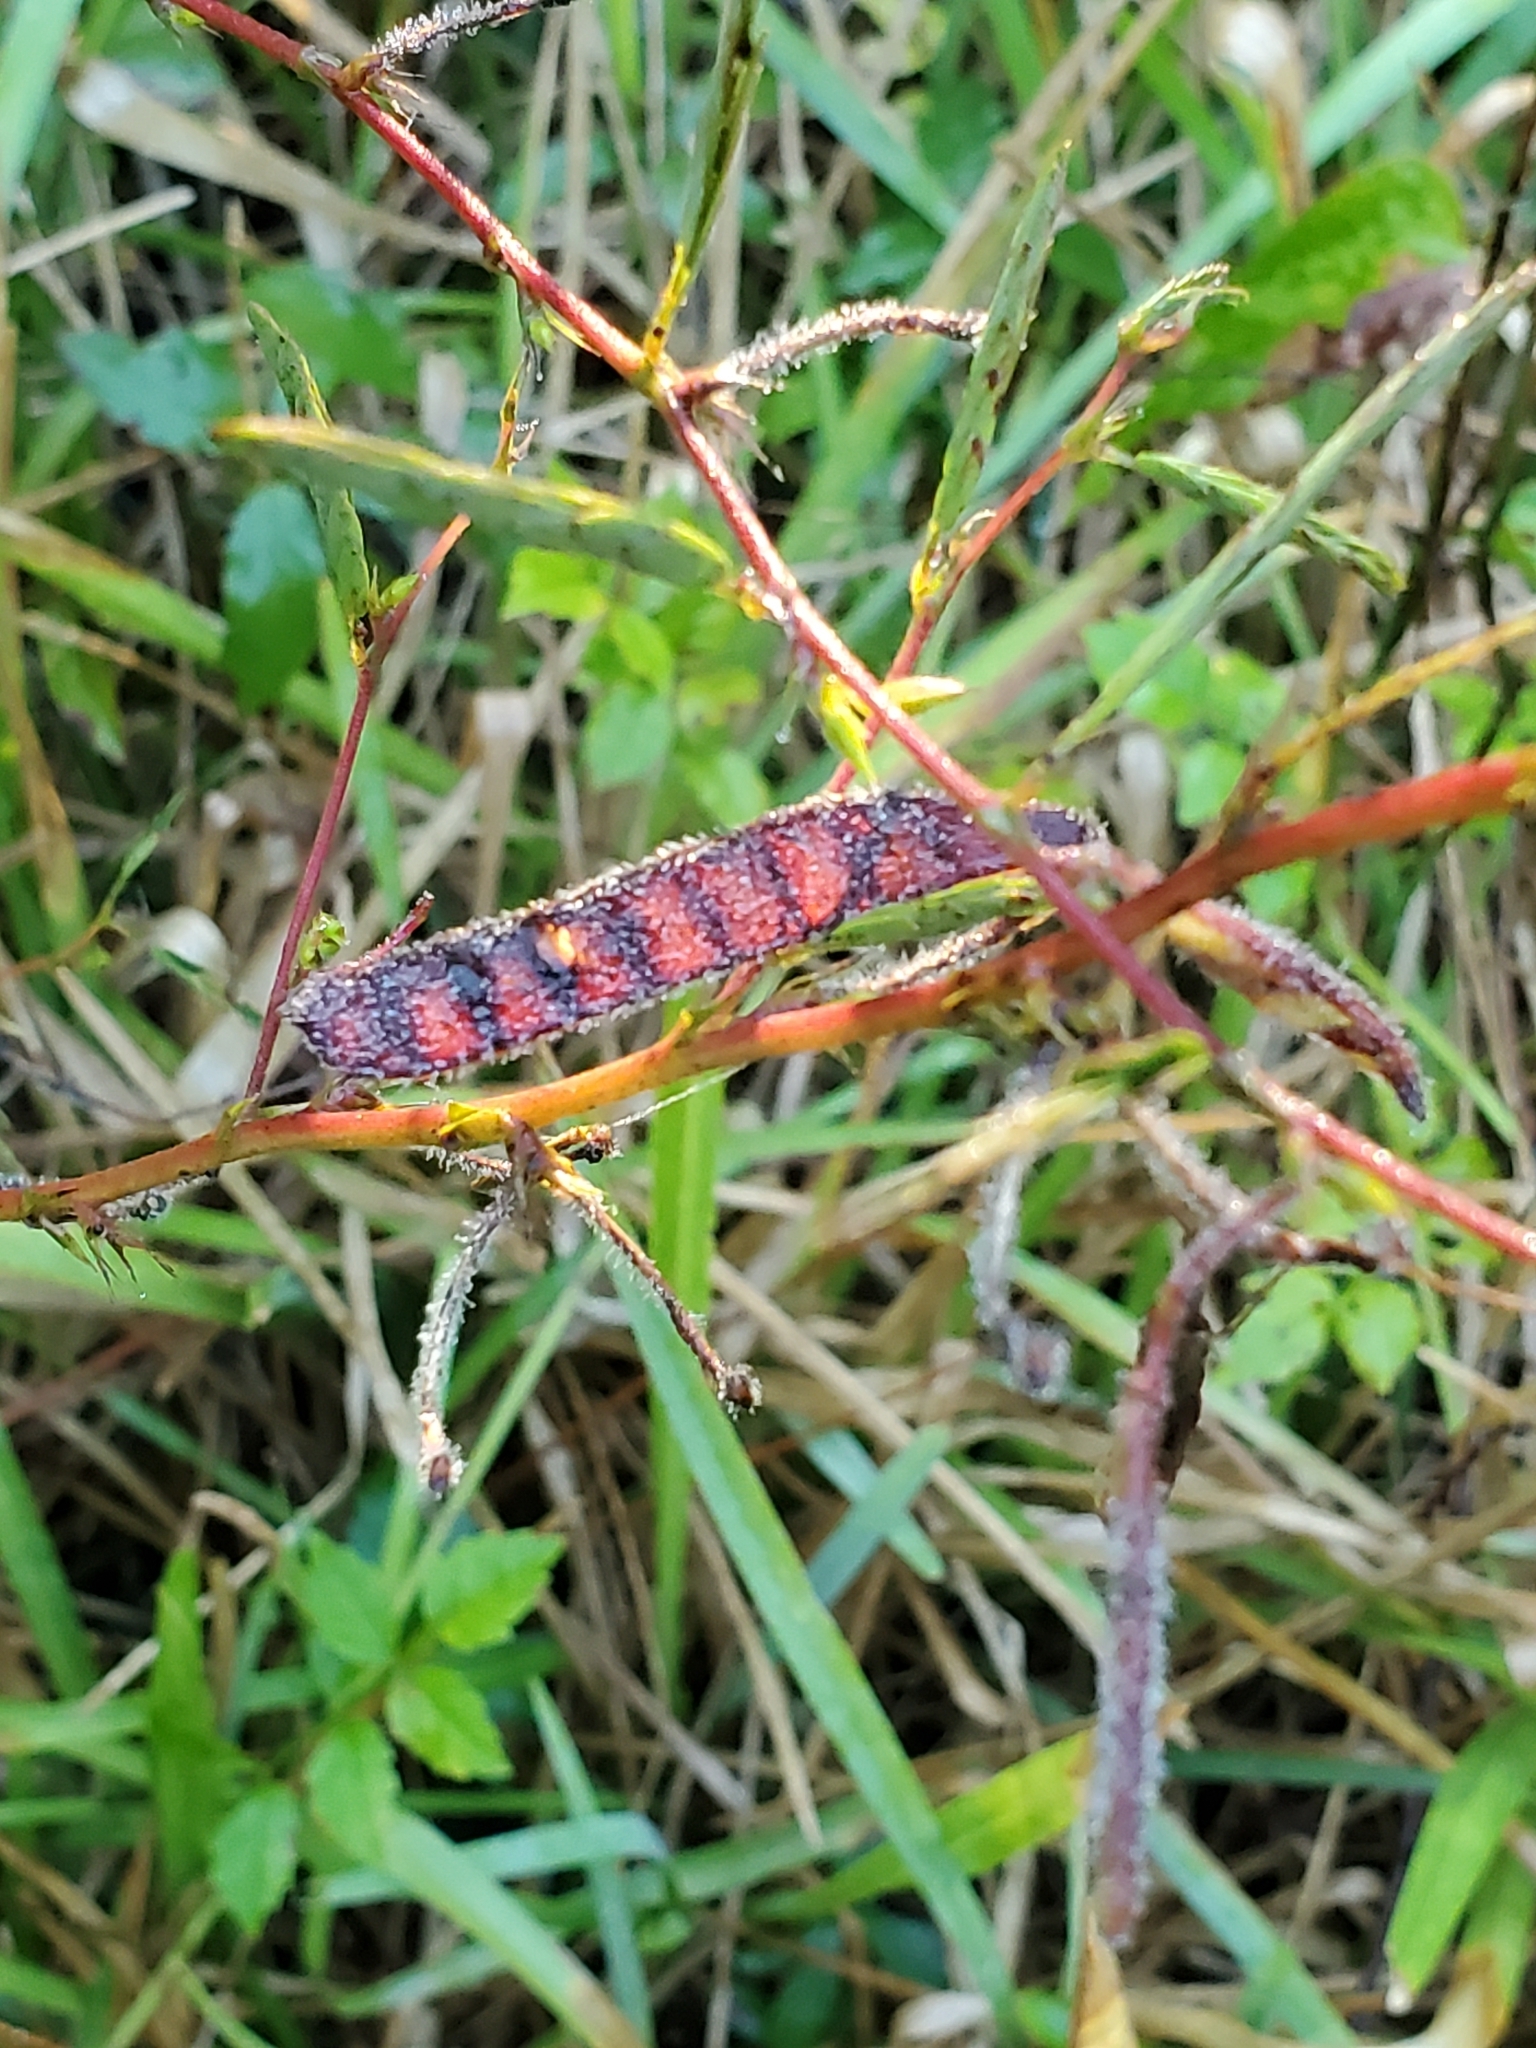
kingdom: Plantae
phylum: Tracheophyta
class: Magnoliopsida
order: Fabales
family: Fabaceae
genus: Chamaecrista
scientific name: Chamaecrista fasciculata
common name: Golden cassia
